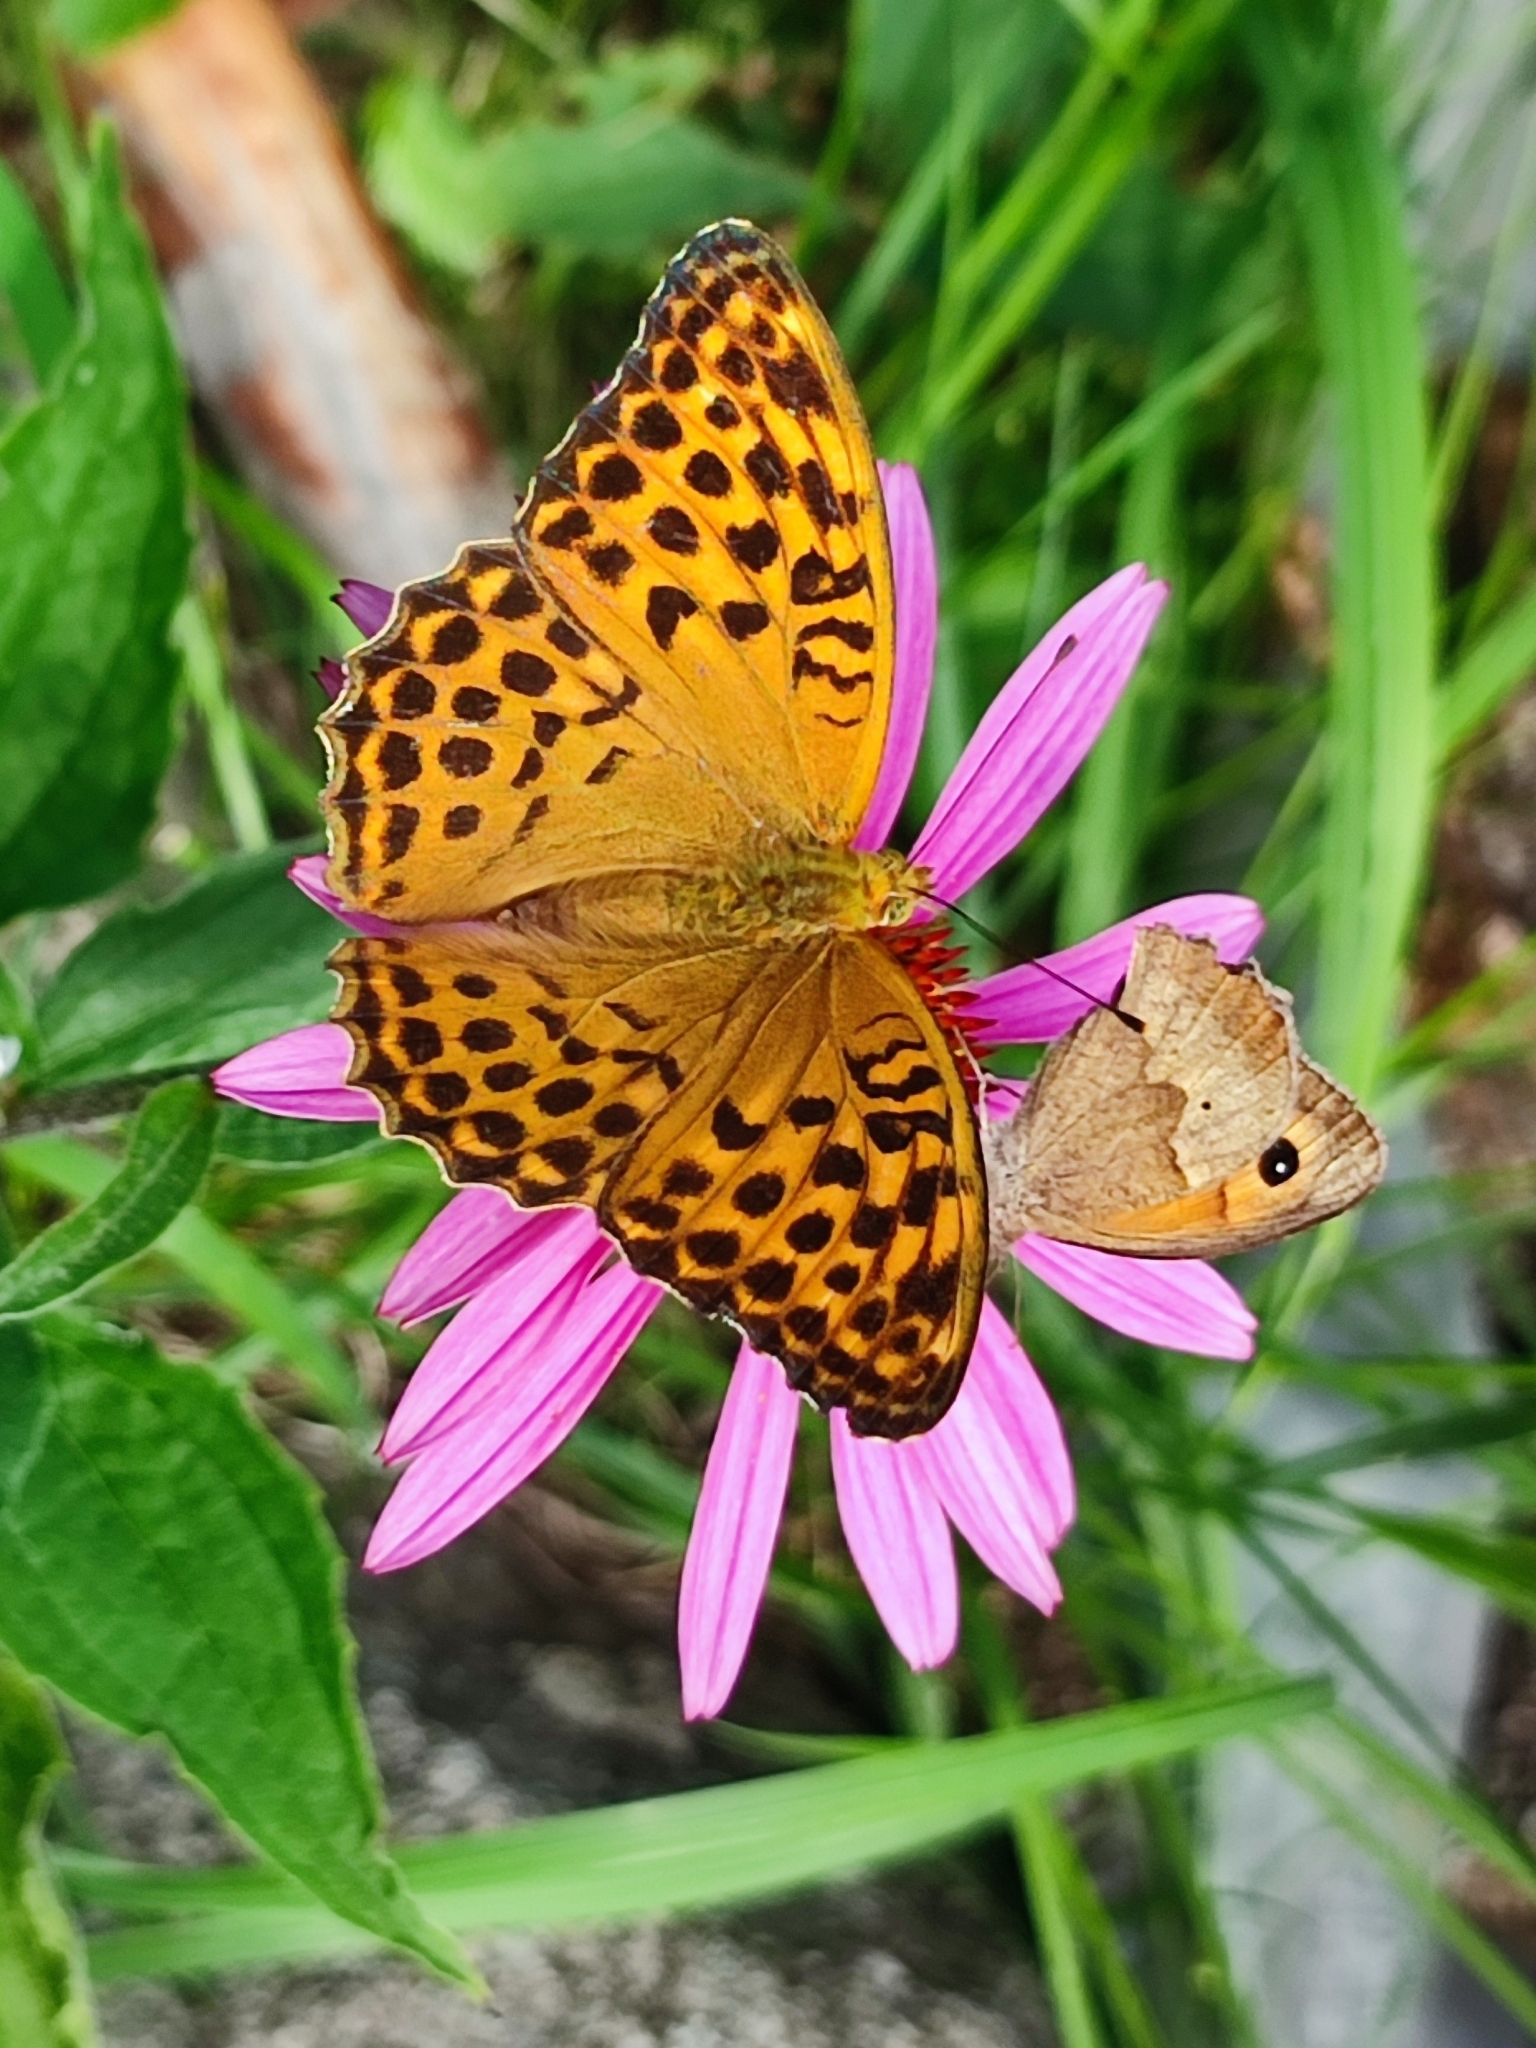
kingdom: Animalia
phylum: Arthropoda
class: Insecta
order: Lepidoptera
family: Nymphalidae
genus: Argynnis
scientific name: Argynnis paphia
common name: Silver-washed fritillary
